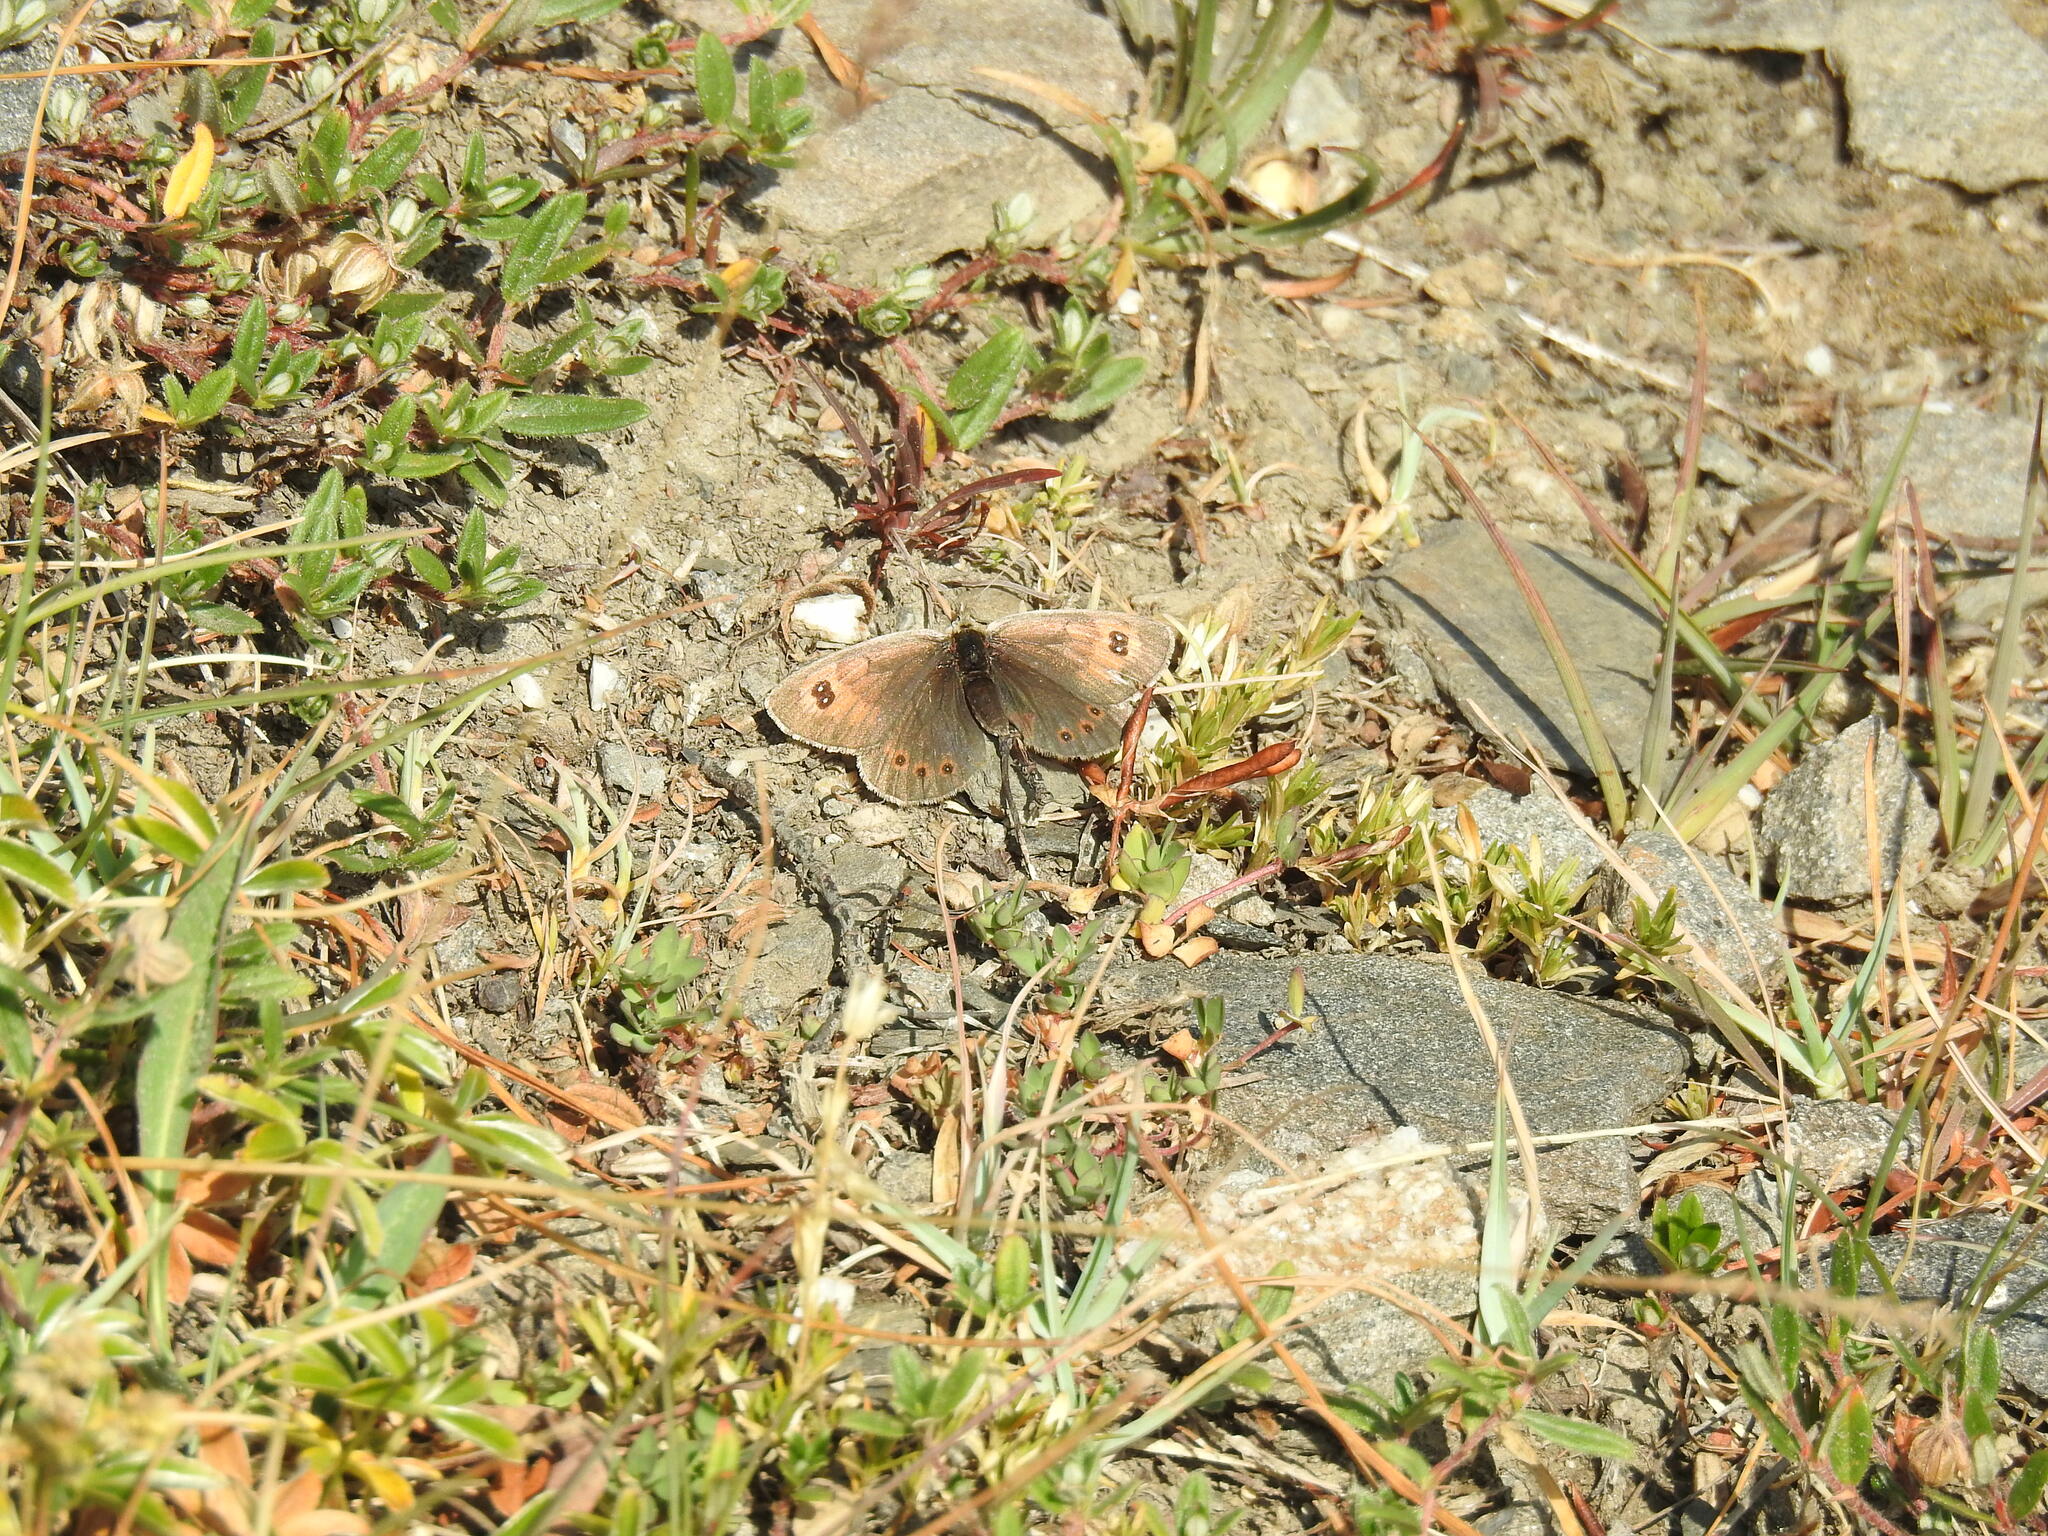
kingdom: Animalia
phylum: Arthropoda
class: Insecta
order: Lepidoptera
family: Nymphalidae
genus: Erebia
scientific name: Erebia cassioides
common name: Common brassy ringlet
